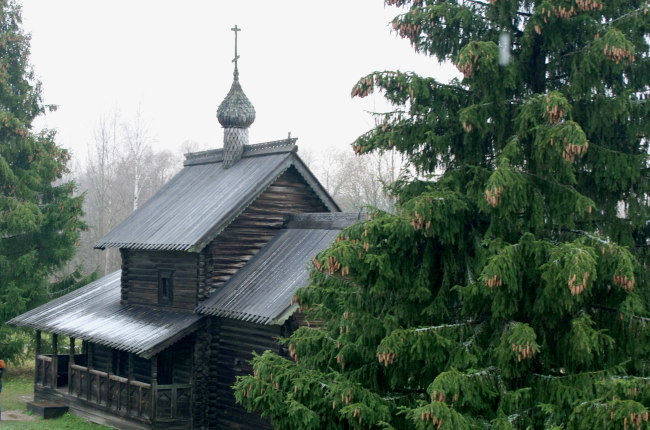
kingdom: Plantae
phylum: Tracheophyta
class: Pinopsida
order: Pinales
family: Pinaceae
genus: Picea
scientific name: Picea abies
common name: Norway spruce
